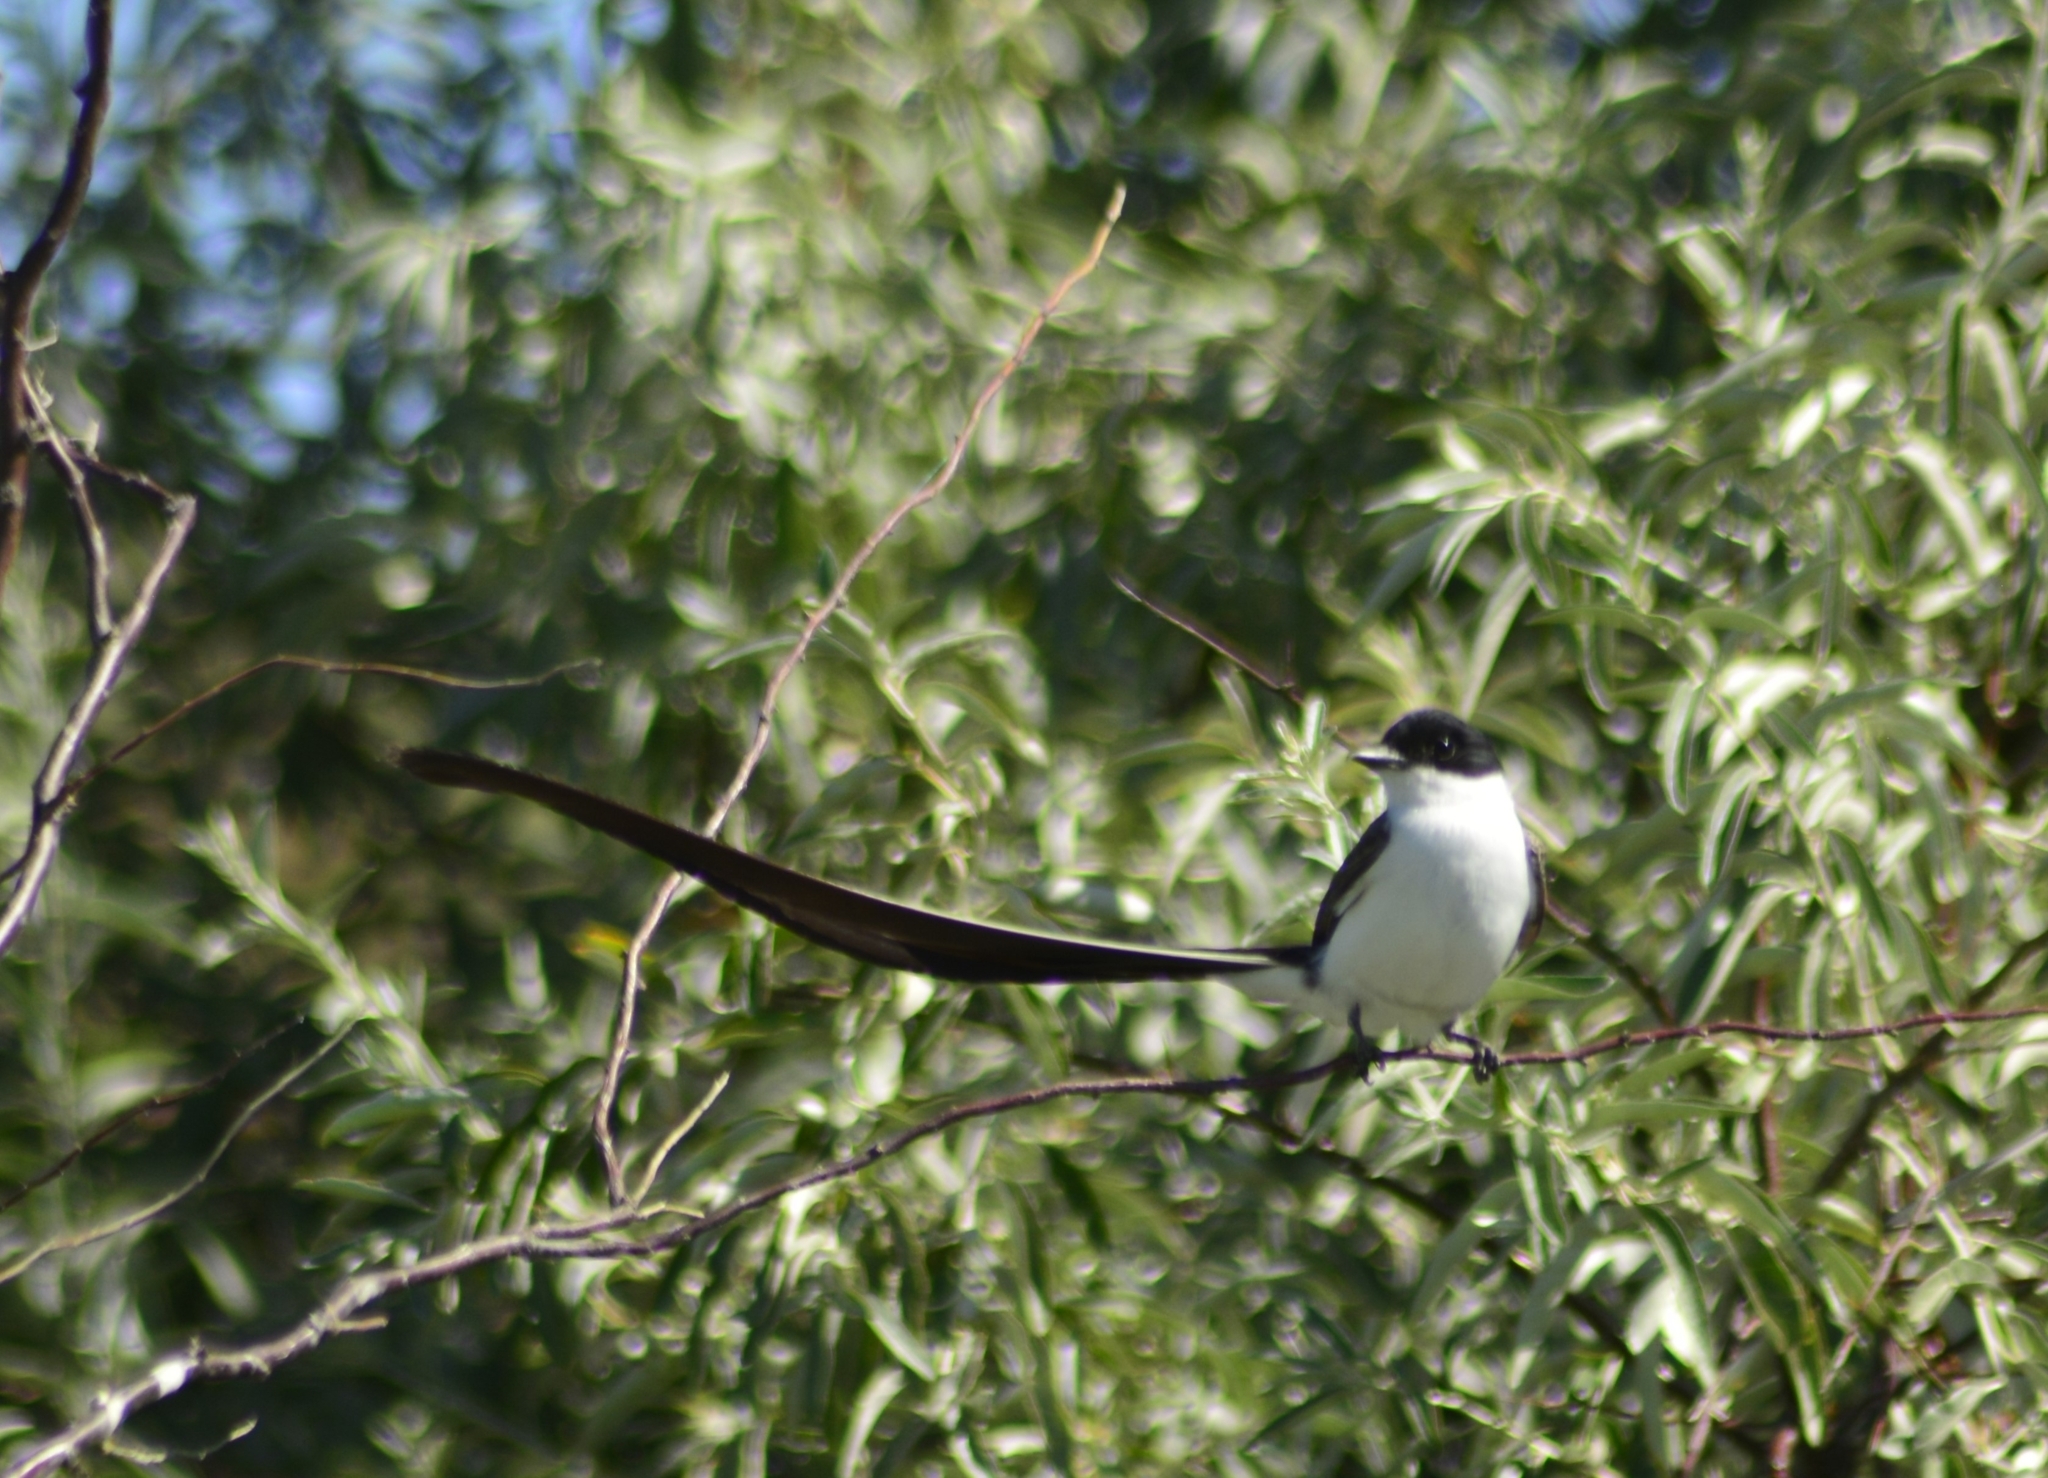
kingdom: Animalia
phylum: Chordata
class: Aves
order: Passeriformes
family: Tyrannidae
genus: Tyrannus
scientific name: Tyrannus savana
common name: Fork-tailed flycatcher
